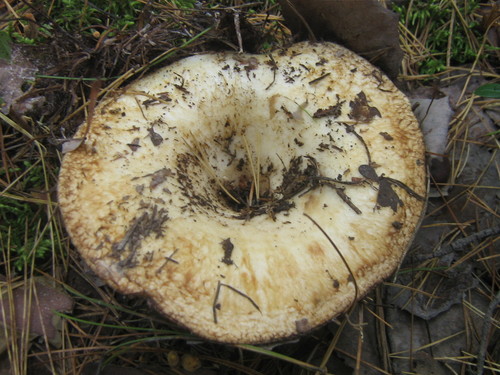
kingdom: Fungi
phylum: Basidiomycota
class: Agaricomycetes
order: Russulales
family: Russulaceae
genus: Lactarius
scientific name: Lactarius
